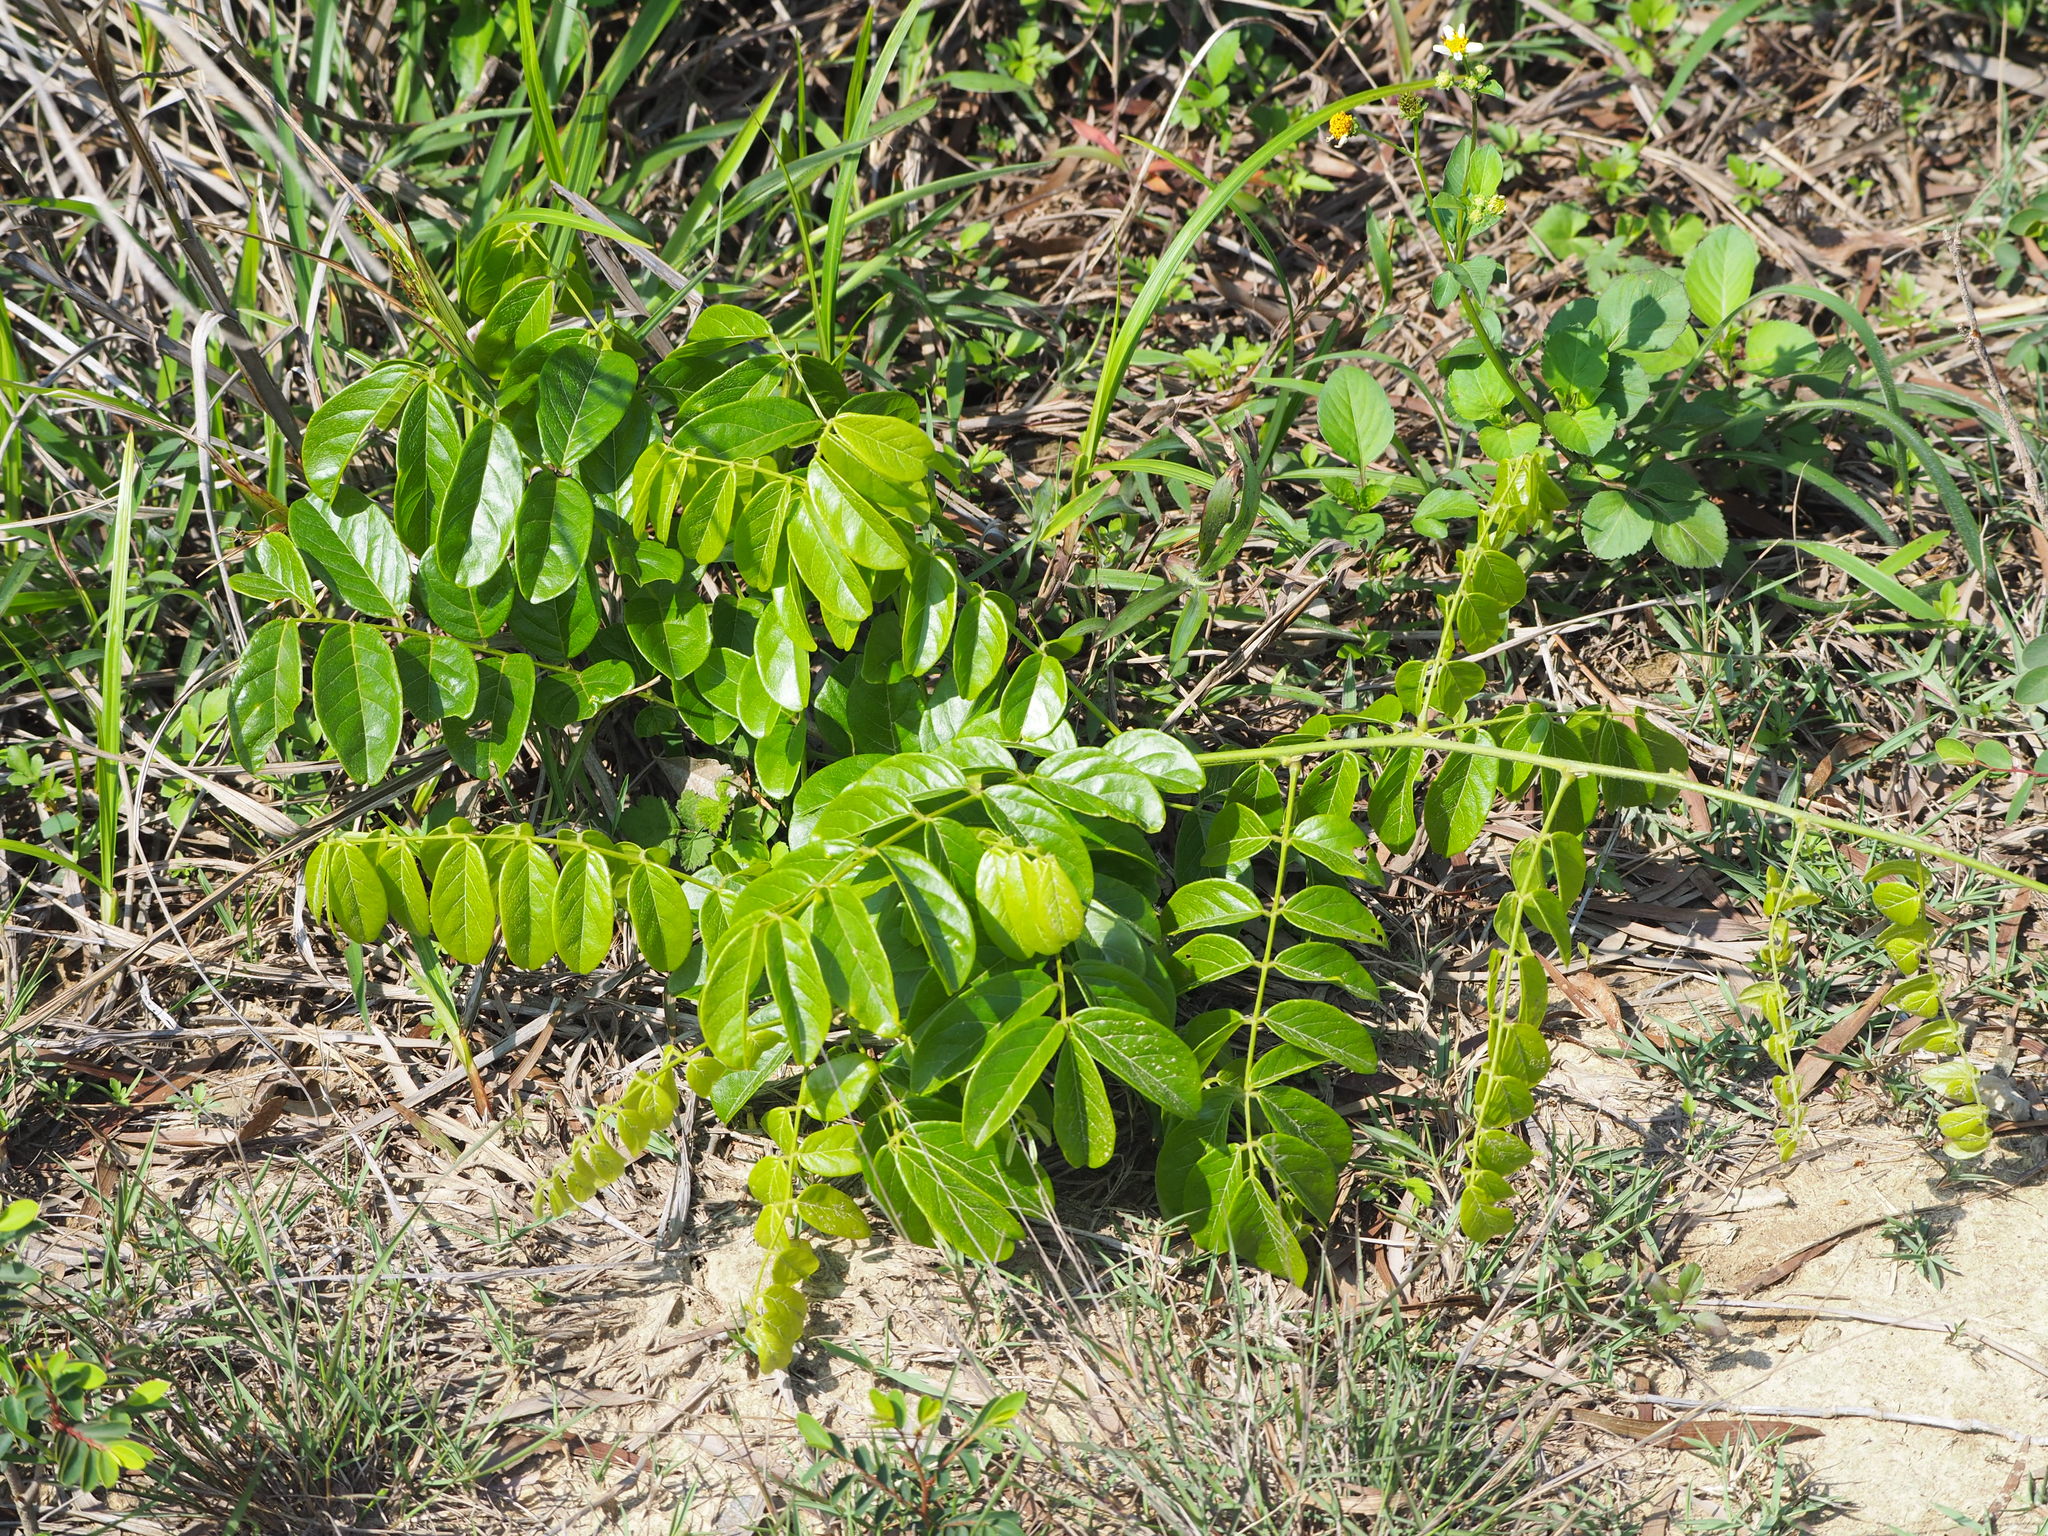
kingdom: Plantae
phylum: Tracheophyta
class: Magnoliopsida
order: Fabales
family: Fabaceae
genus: Wisteriopsis
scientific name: Wisteriopsis reticulata
